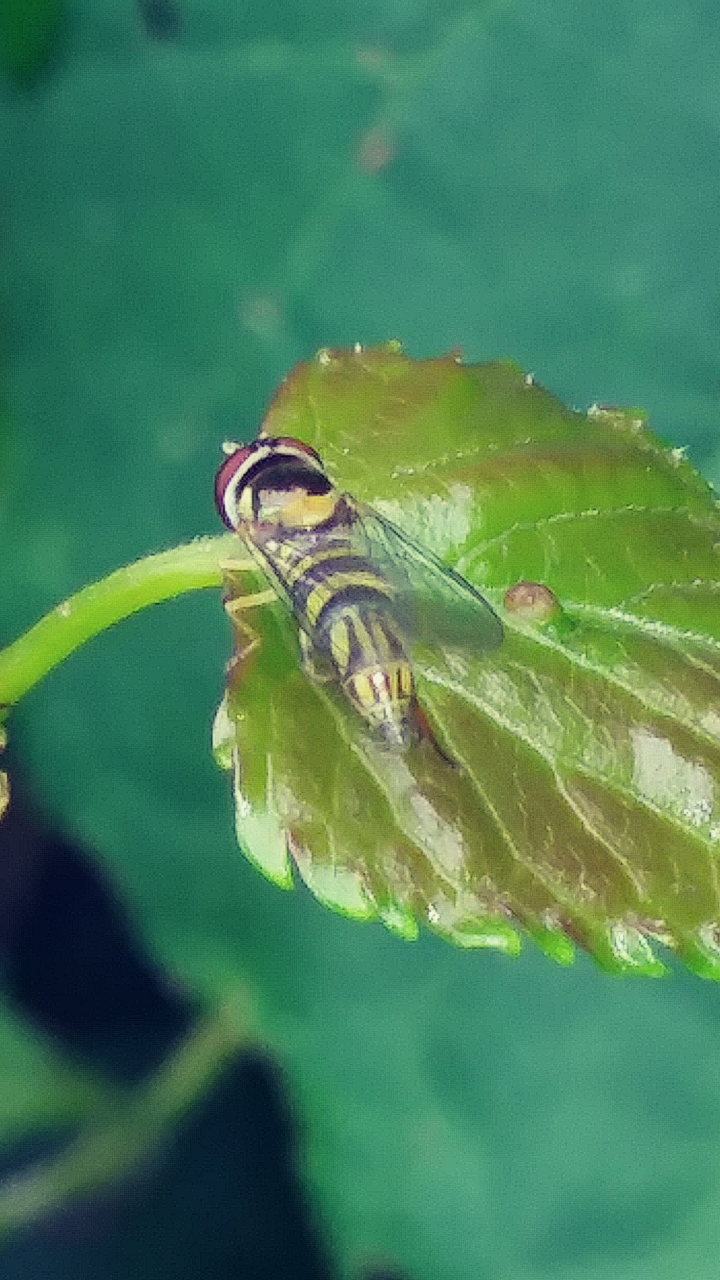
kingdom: Animalia
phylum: Arthropoda
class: Insecta
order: Diptera
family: Syrphidae
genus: Allograpta
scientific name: Allograpta obliqua
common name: Common oblique syrphid
